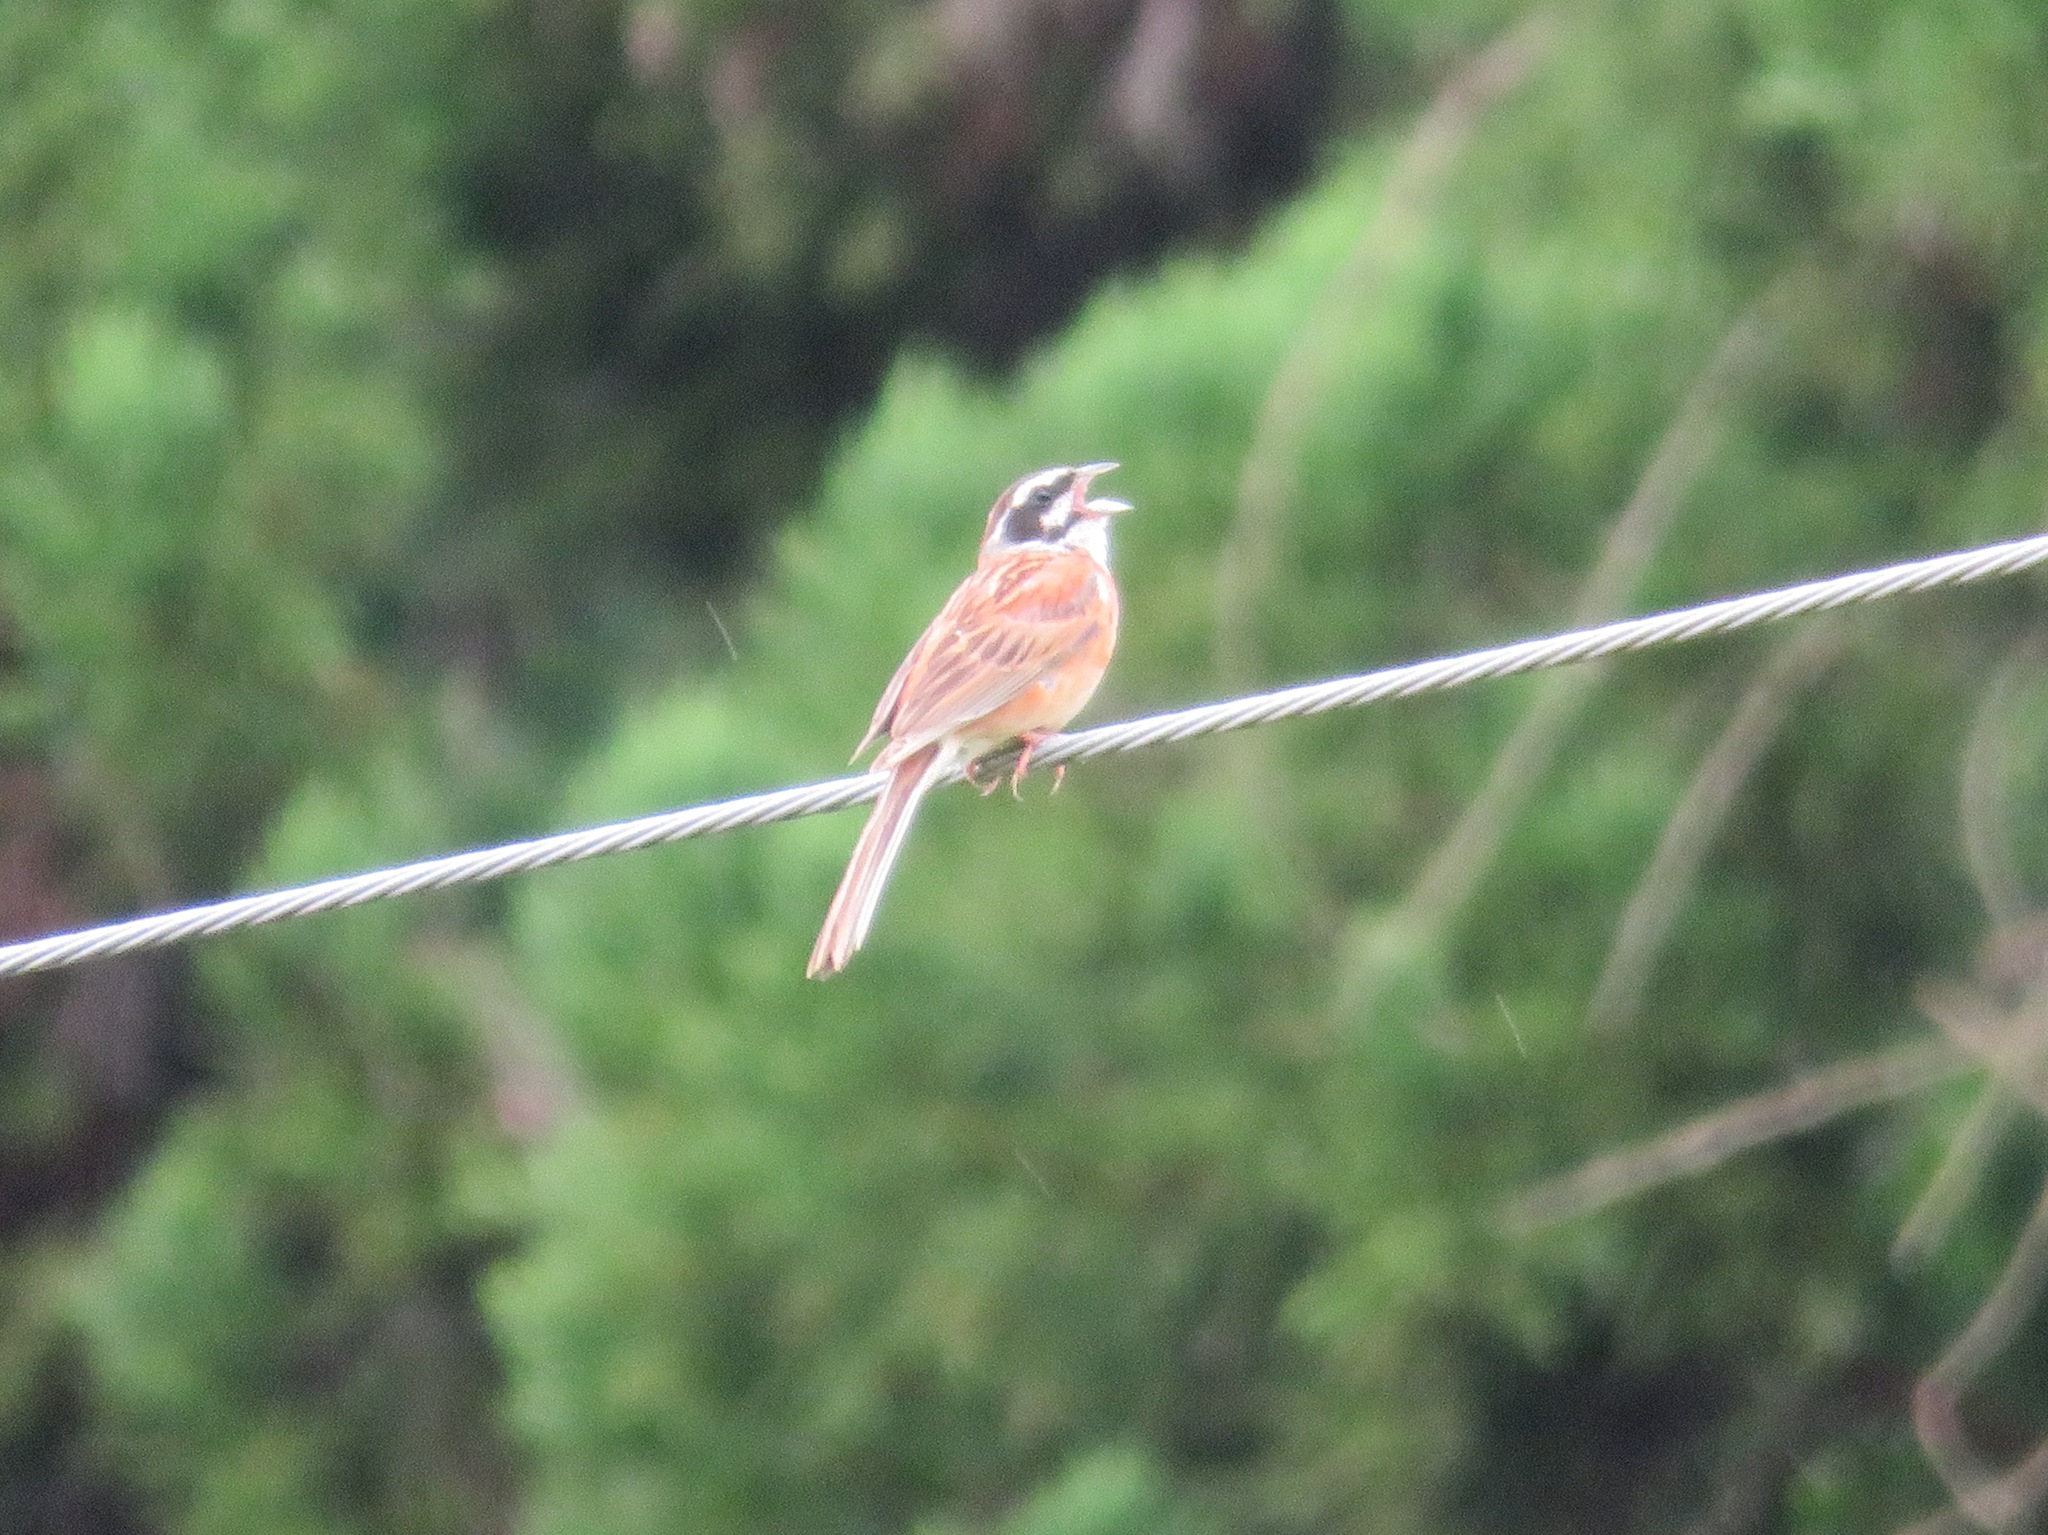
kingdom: Animalia
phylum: Chordata
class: Aves
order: Passeriformes
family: Emberizidae
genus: Emberiza
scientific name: Emberiza cioides
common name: Meadow bunting
